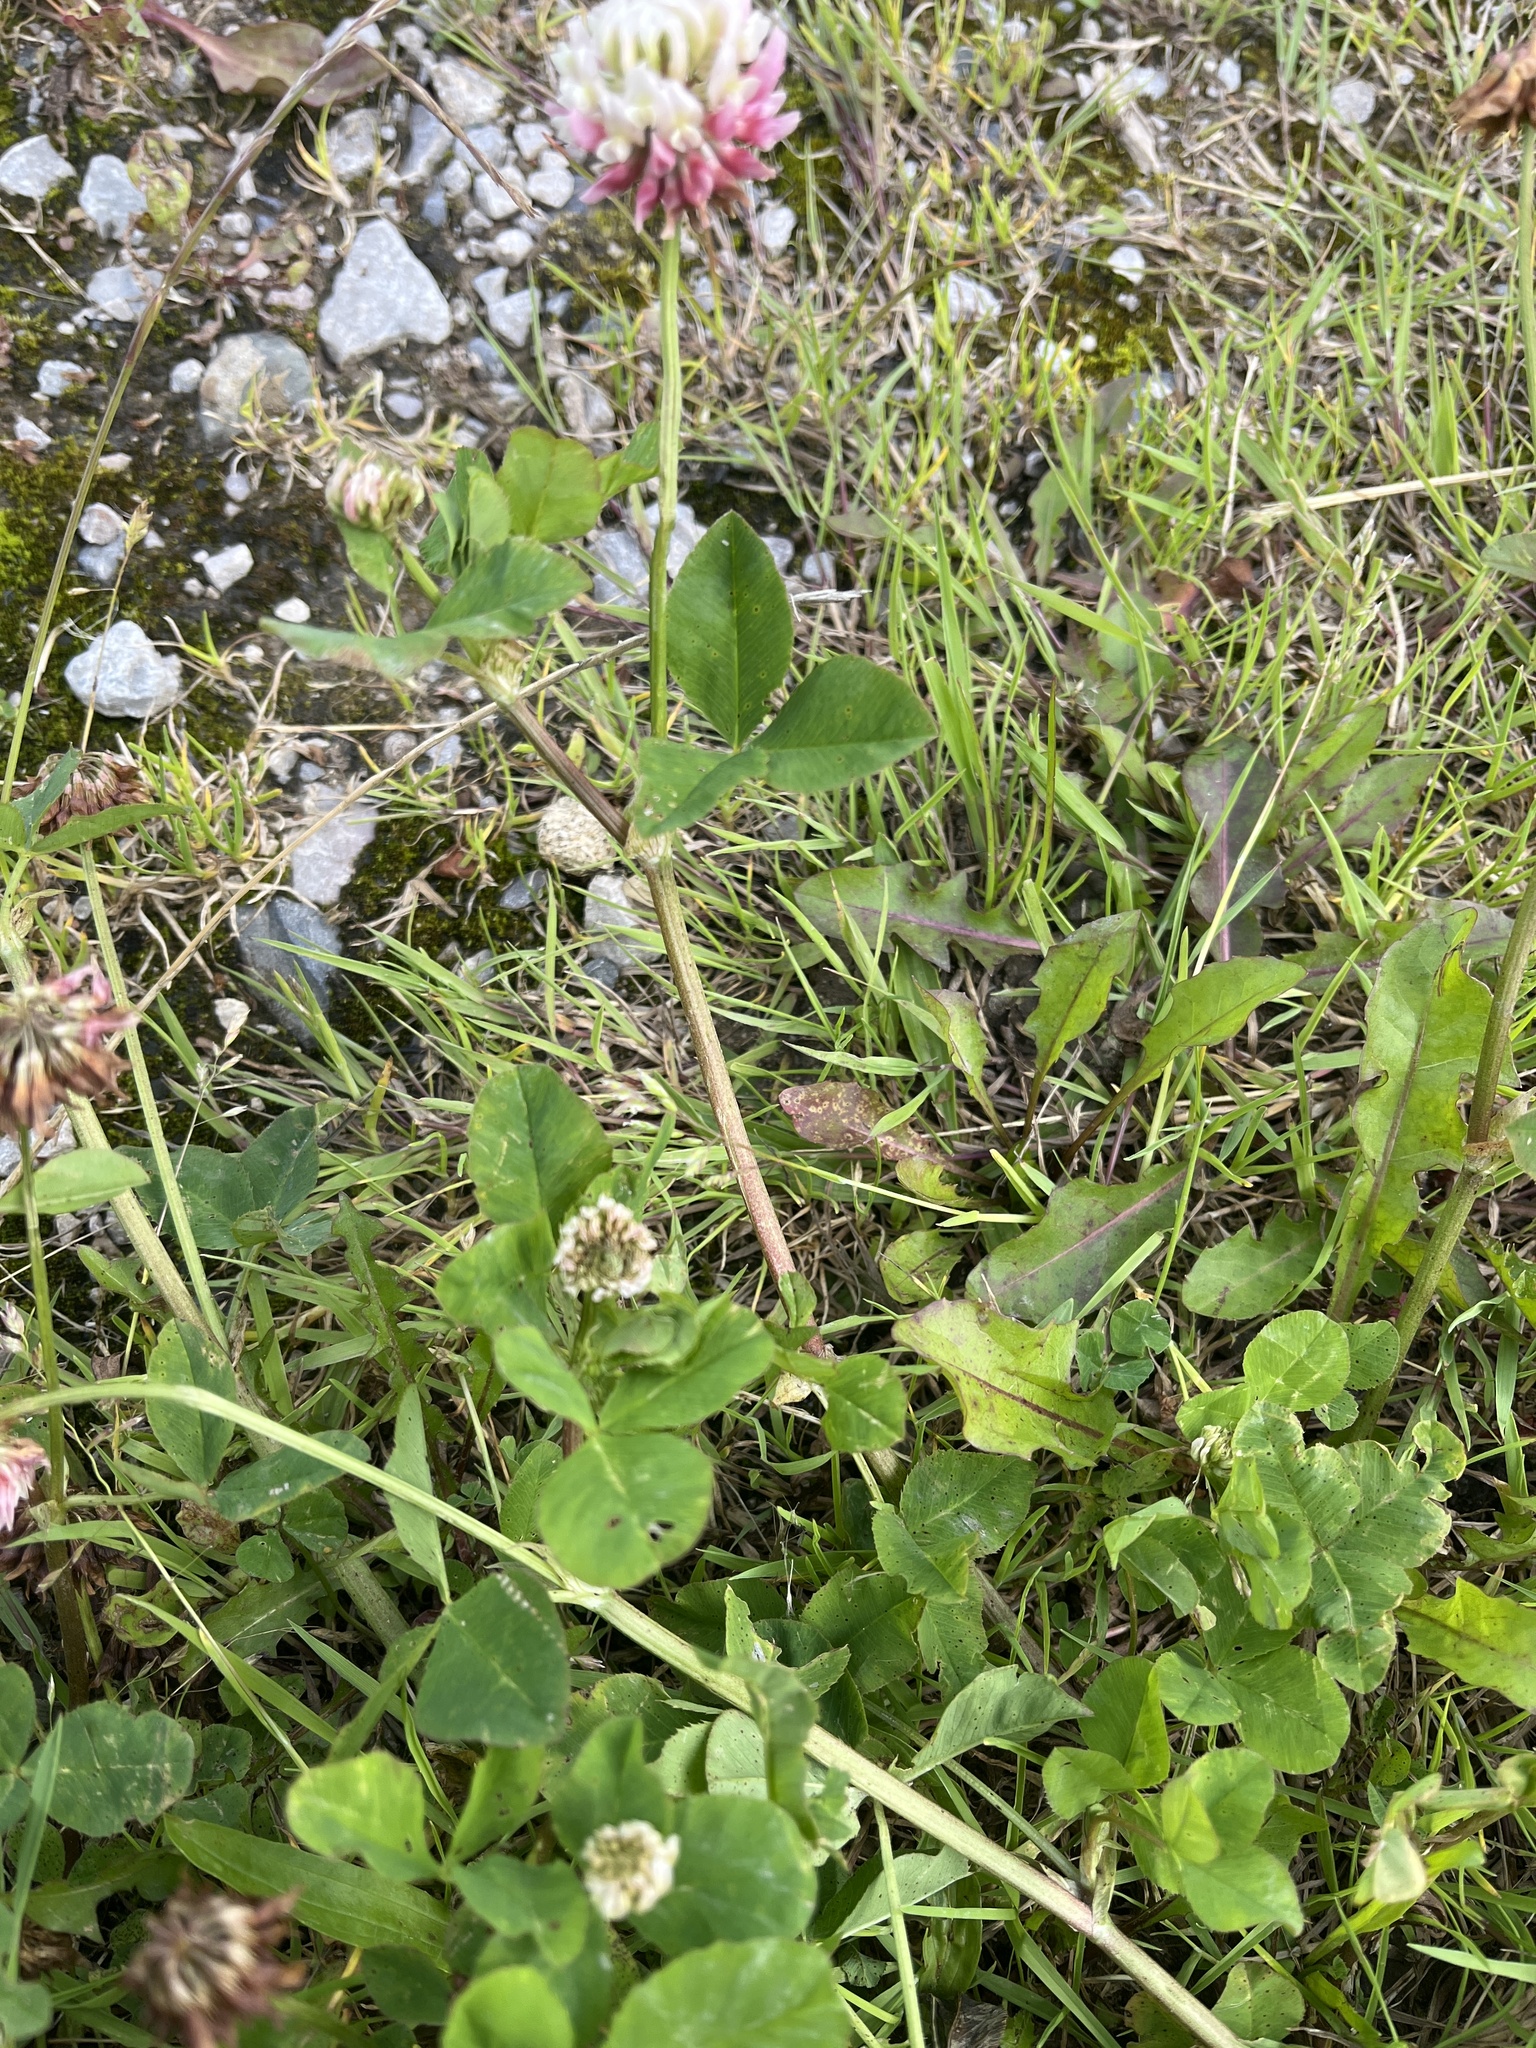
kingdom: Plantae
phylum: Tracheophyta
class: Magnoliopsida
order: Fabales
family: Fabaceae
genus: Trifolium
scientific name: Trifolium hybridum
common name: Alsike clover
